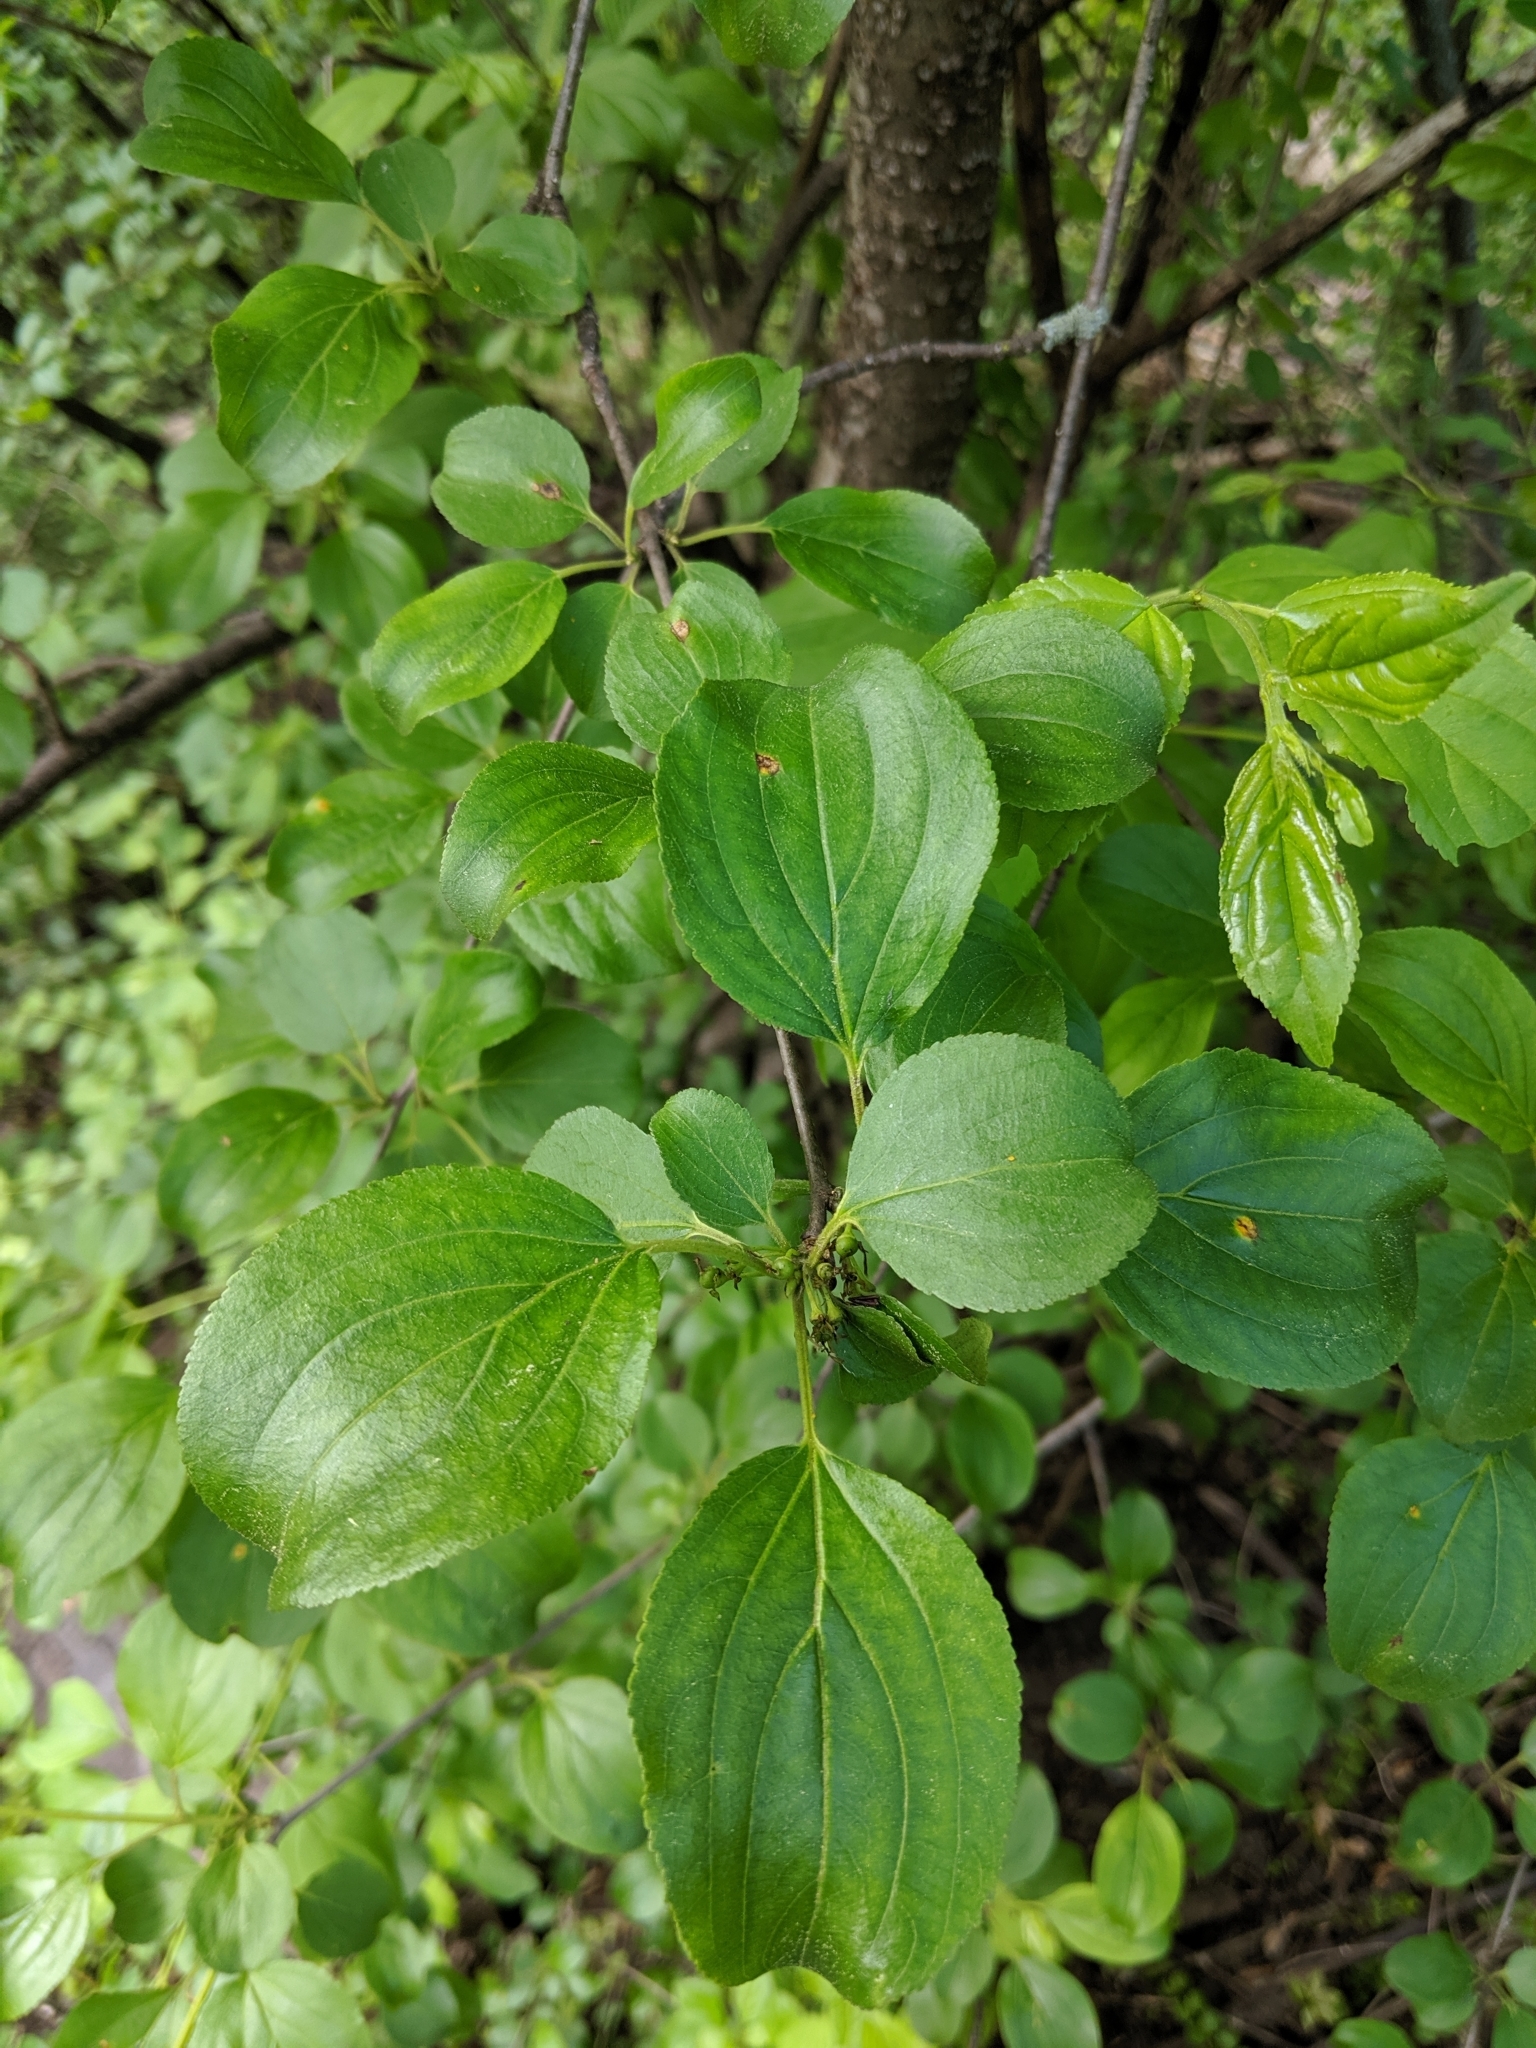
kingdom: Plantae
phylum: Tracheophyta
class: Magnoliopsida
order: Rosales
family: Rhamnaceae
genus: Rhamnus
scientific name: Rhamnus cathartica
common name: Common buckthorn
